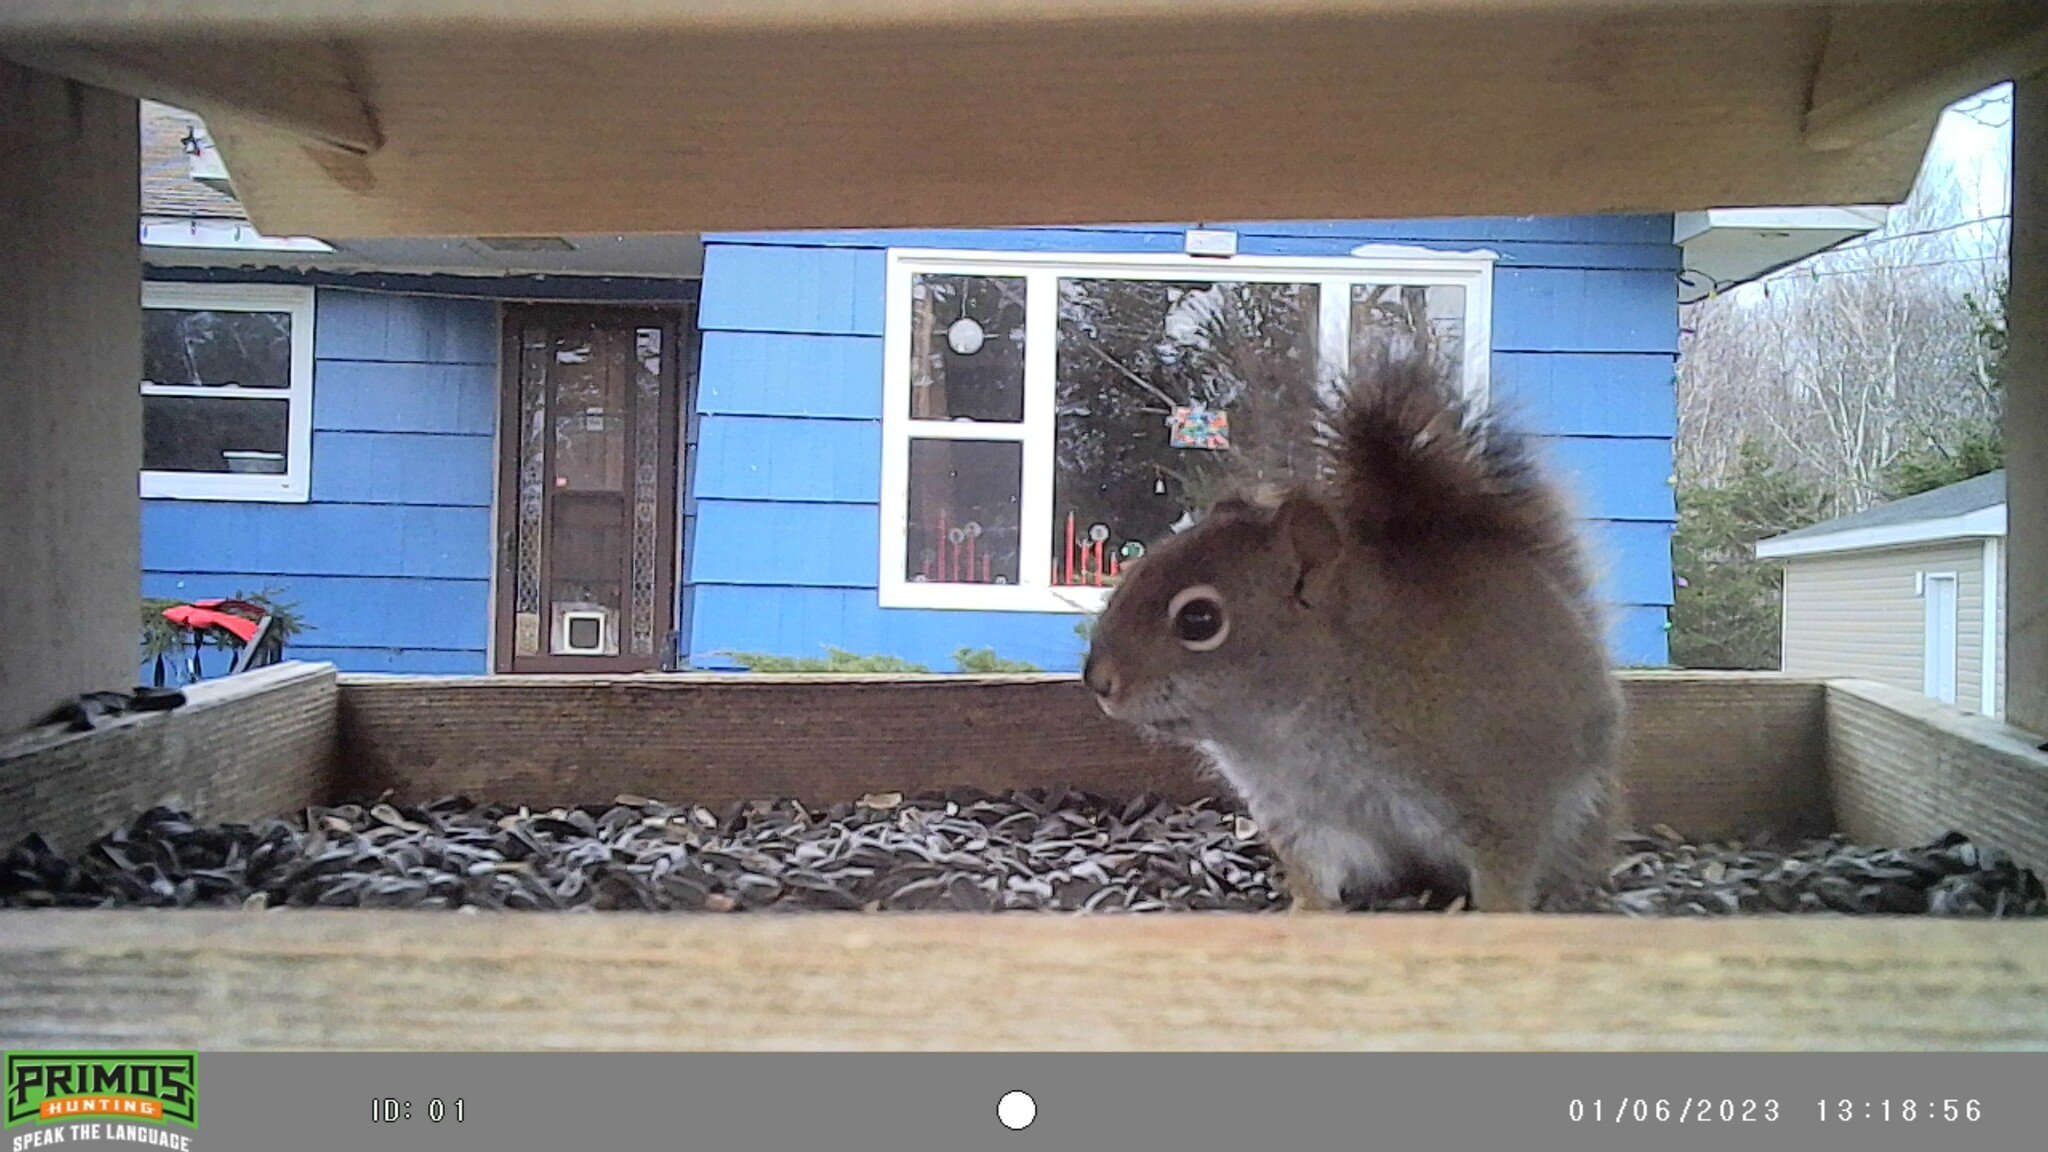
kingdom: Animalia
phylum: Chordata
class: Mammalia
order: Rodentia
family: Sciuridae
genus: Tamiasciurus
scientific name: Tamiasciurus hudsonicus
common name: Red squirrel
